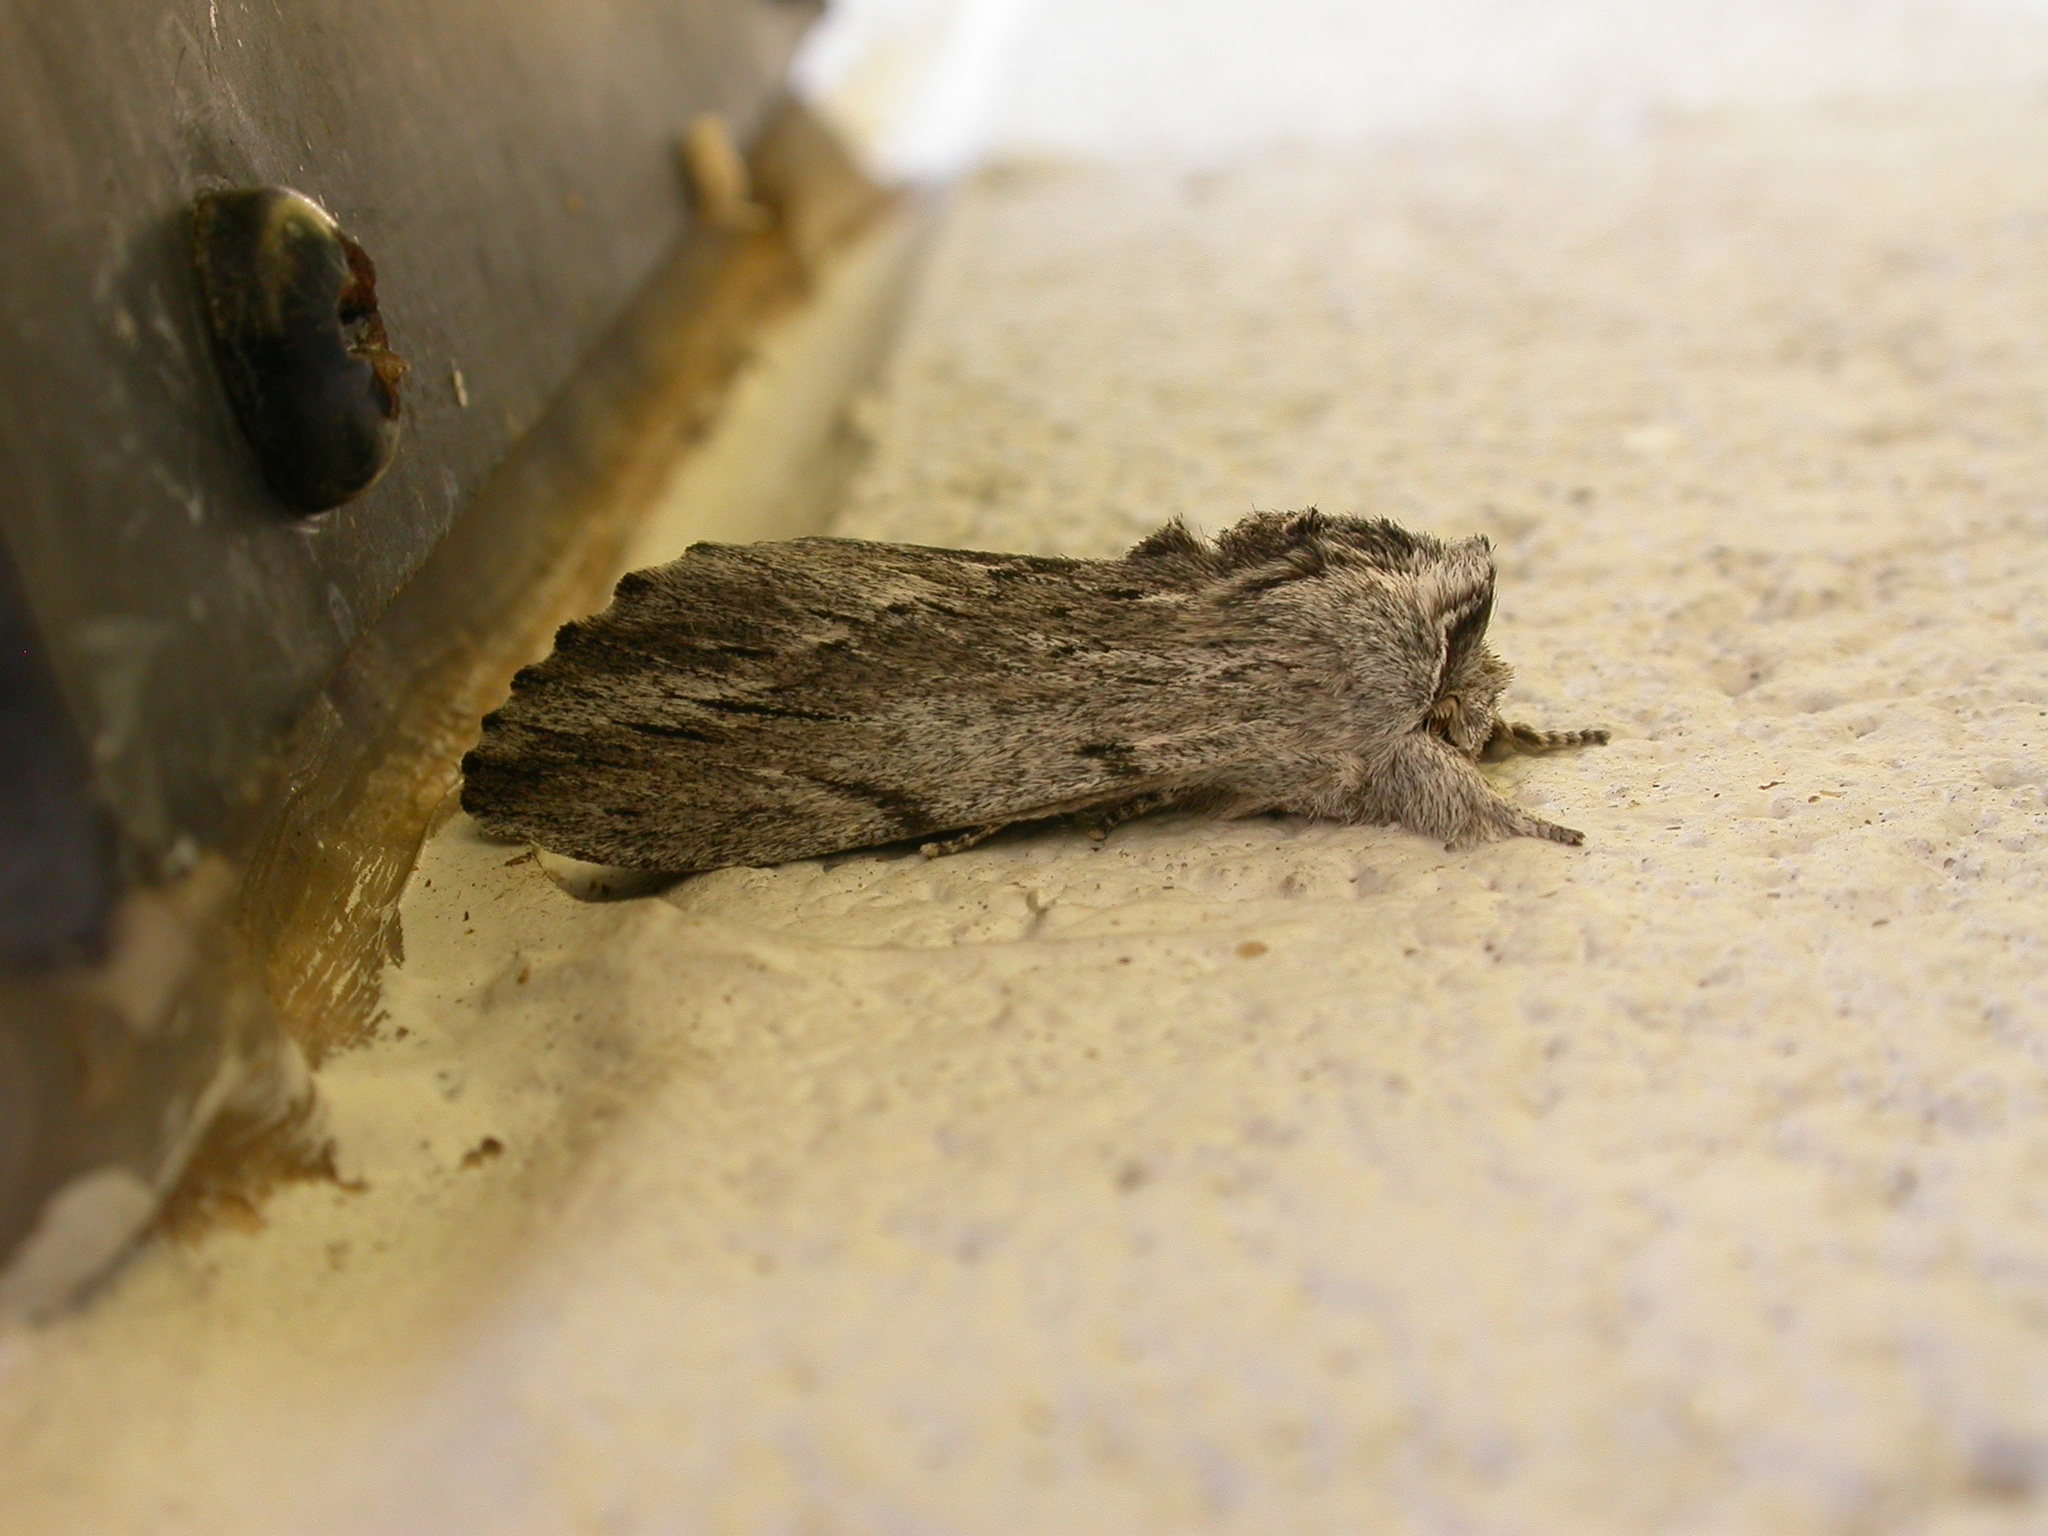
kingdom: Animalia
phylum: Arthropoda
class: Insecta
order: Lepidoptera
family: Notodontidae
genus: Destolmia
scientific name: Destolmia lineata
